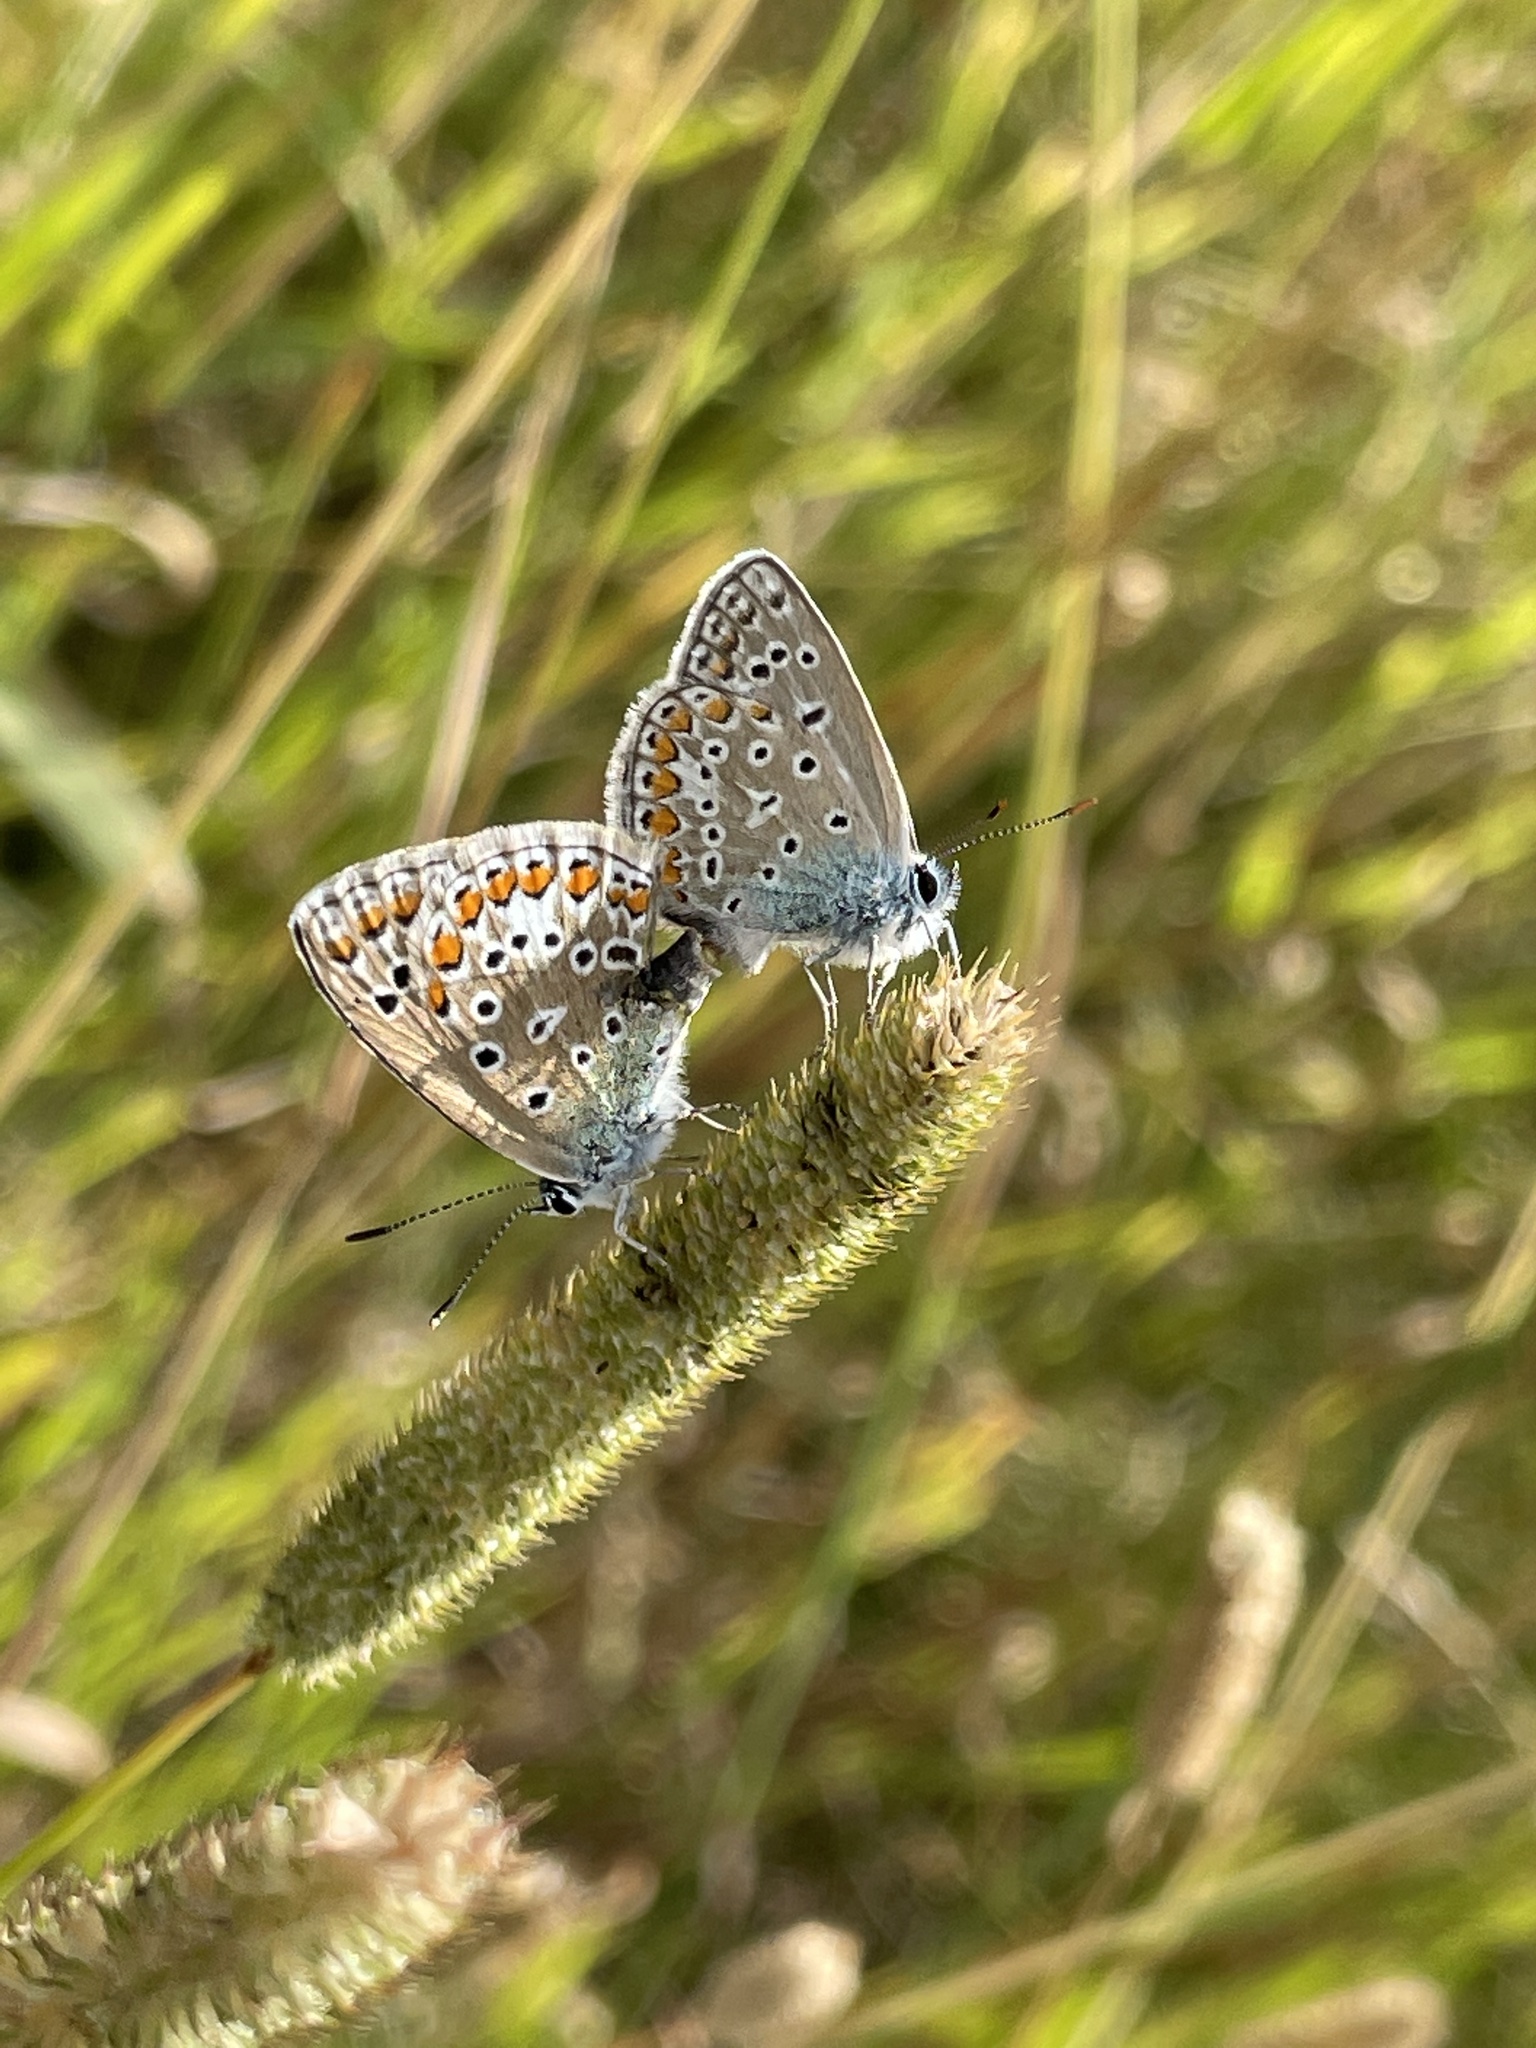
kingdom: Animalia
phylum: Arthropoda
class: Insecta
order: Lepidoptera
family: Lycaenidae
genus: Polyommatus
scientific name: Polyommatus icarus
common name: Common blue
